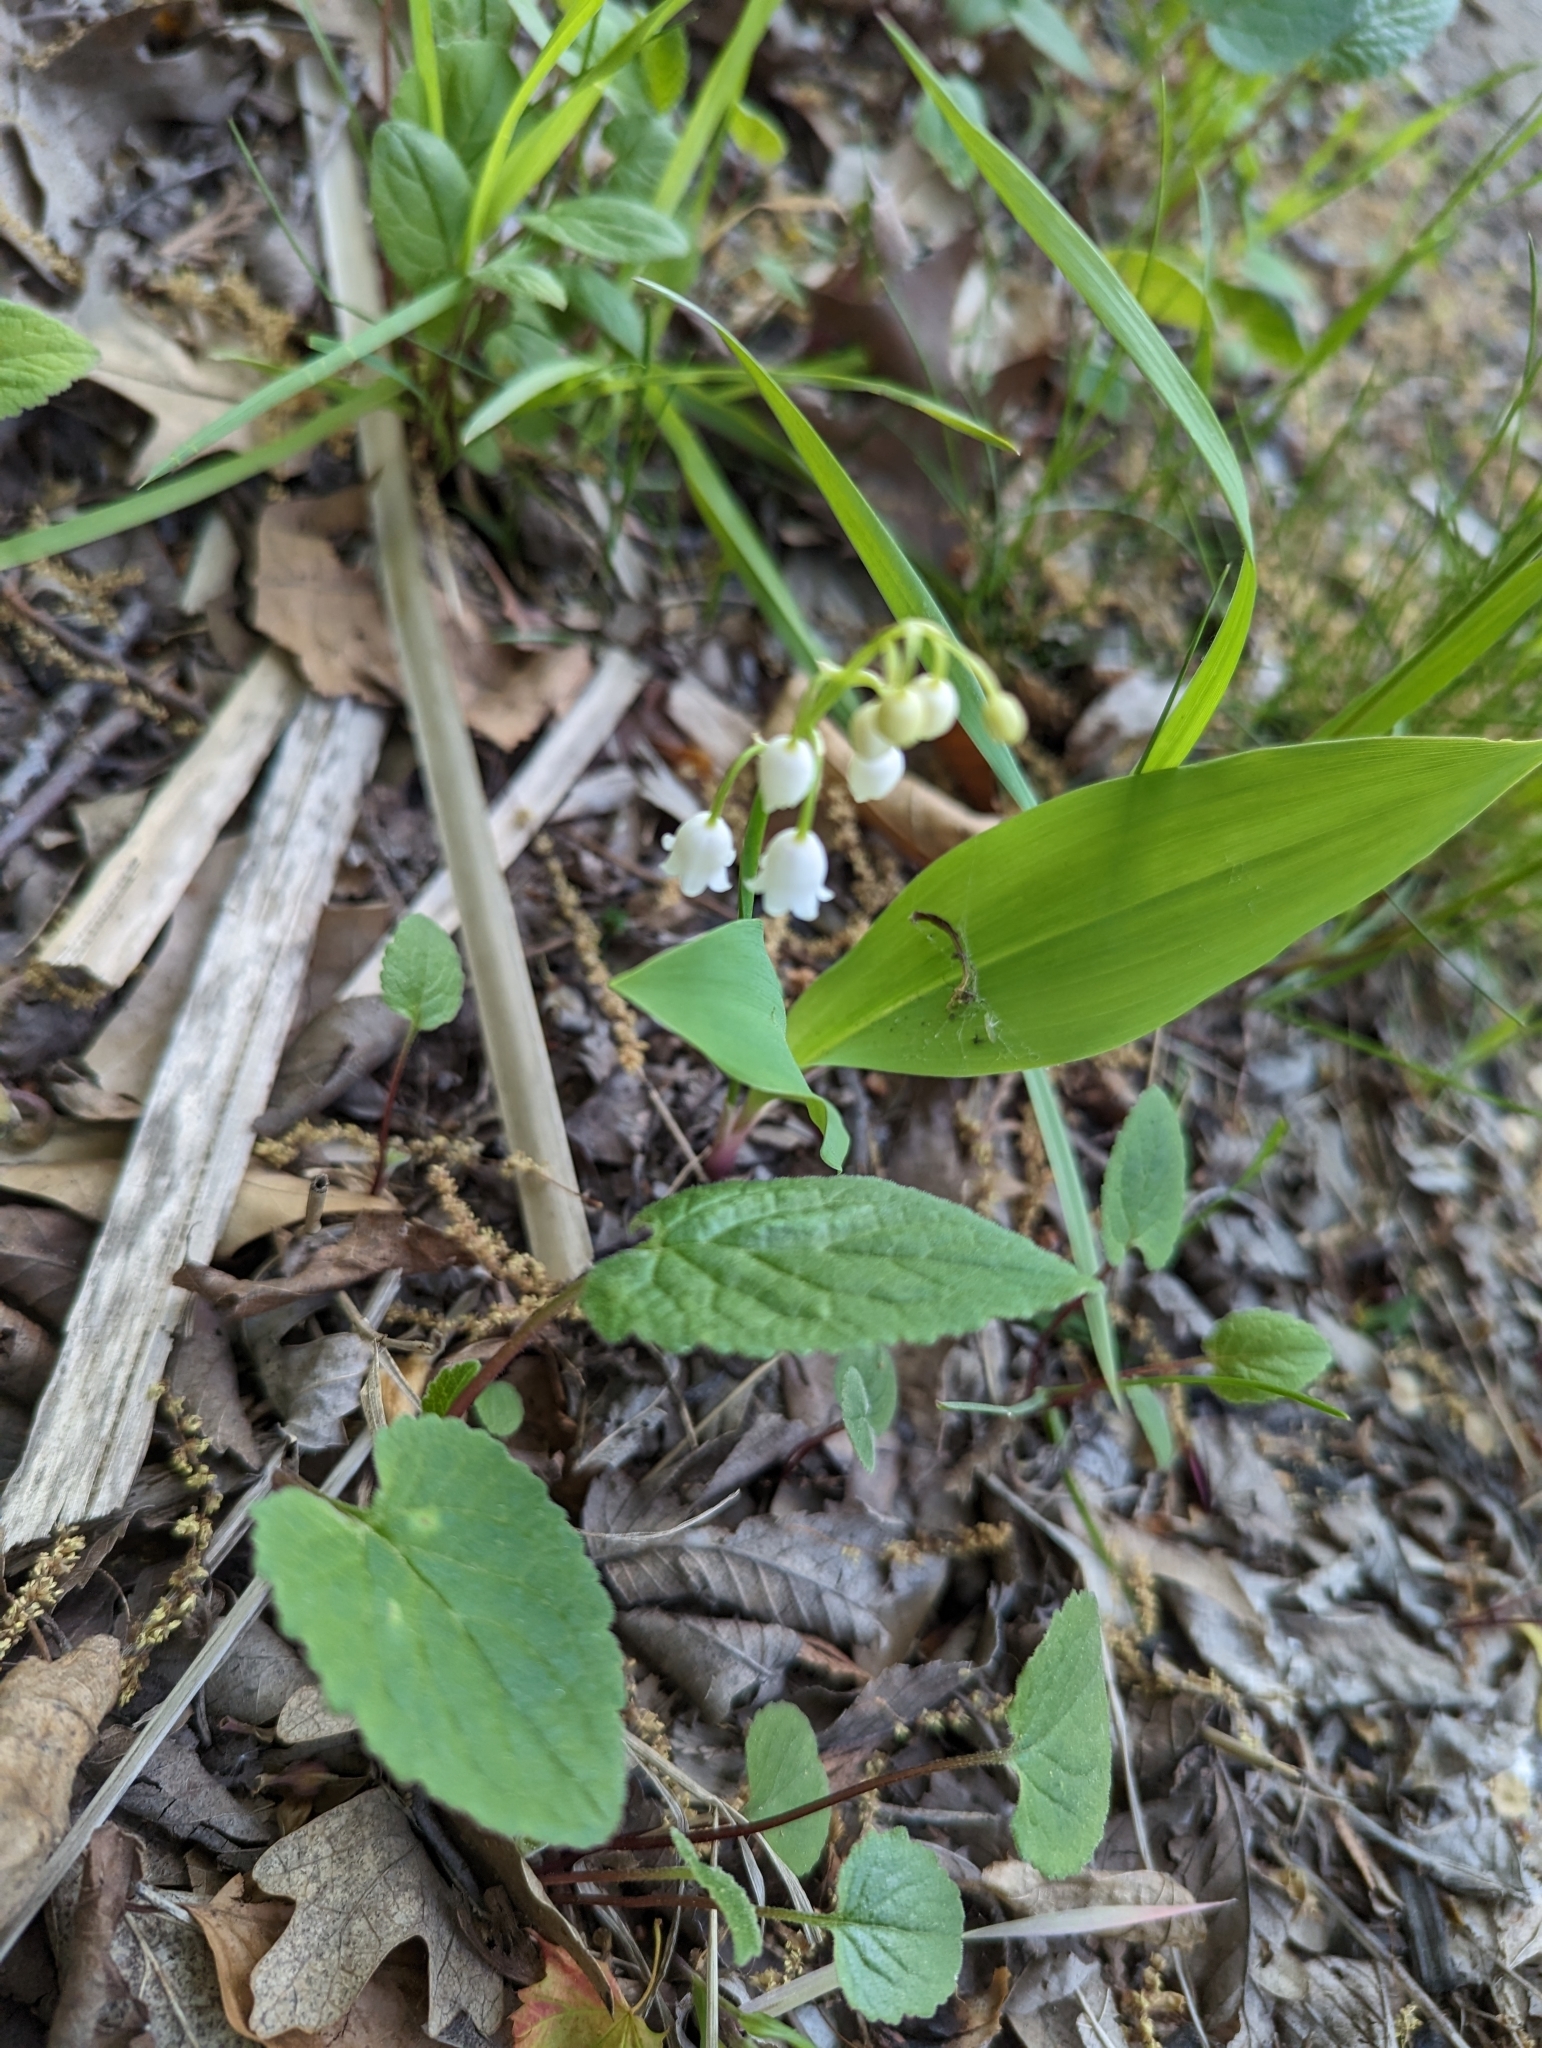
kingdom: Plantae
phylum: Tracheophyta
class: Liliopsida
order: Asparagales
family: Asparagaceae
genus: Convallaria
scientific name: Convallaria majalis
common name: Lily-of-the-valley
